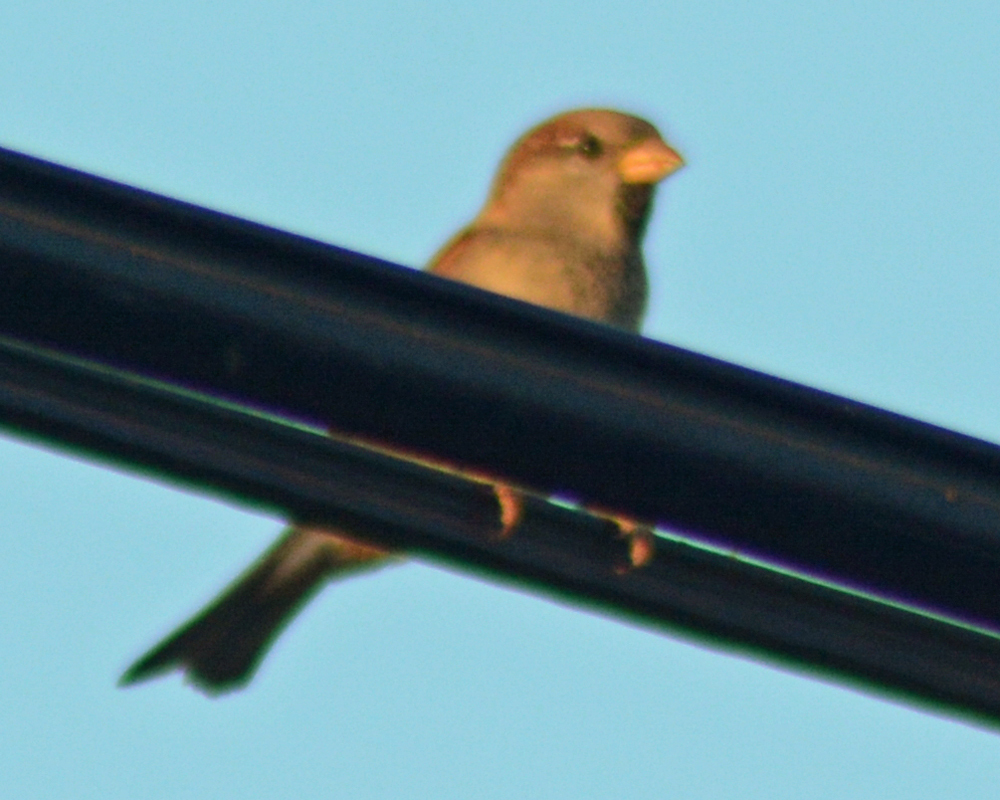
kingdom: Animalia
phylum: Chordata
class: Aves
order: Passeriformes
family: Passeridae
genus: Passer
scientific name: Passer domesticus
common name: House sparrow
